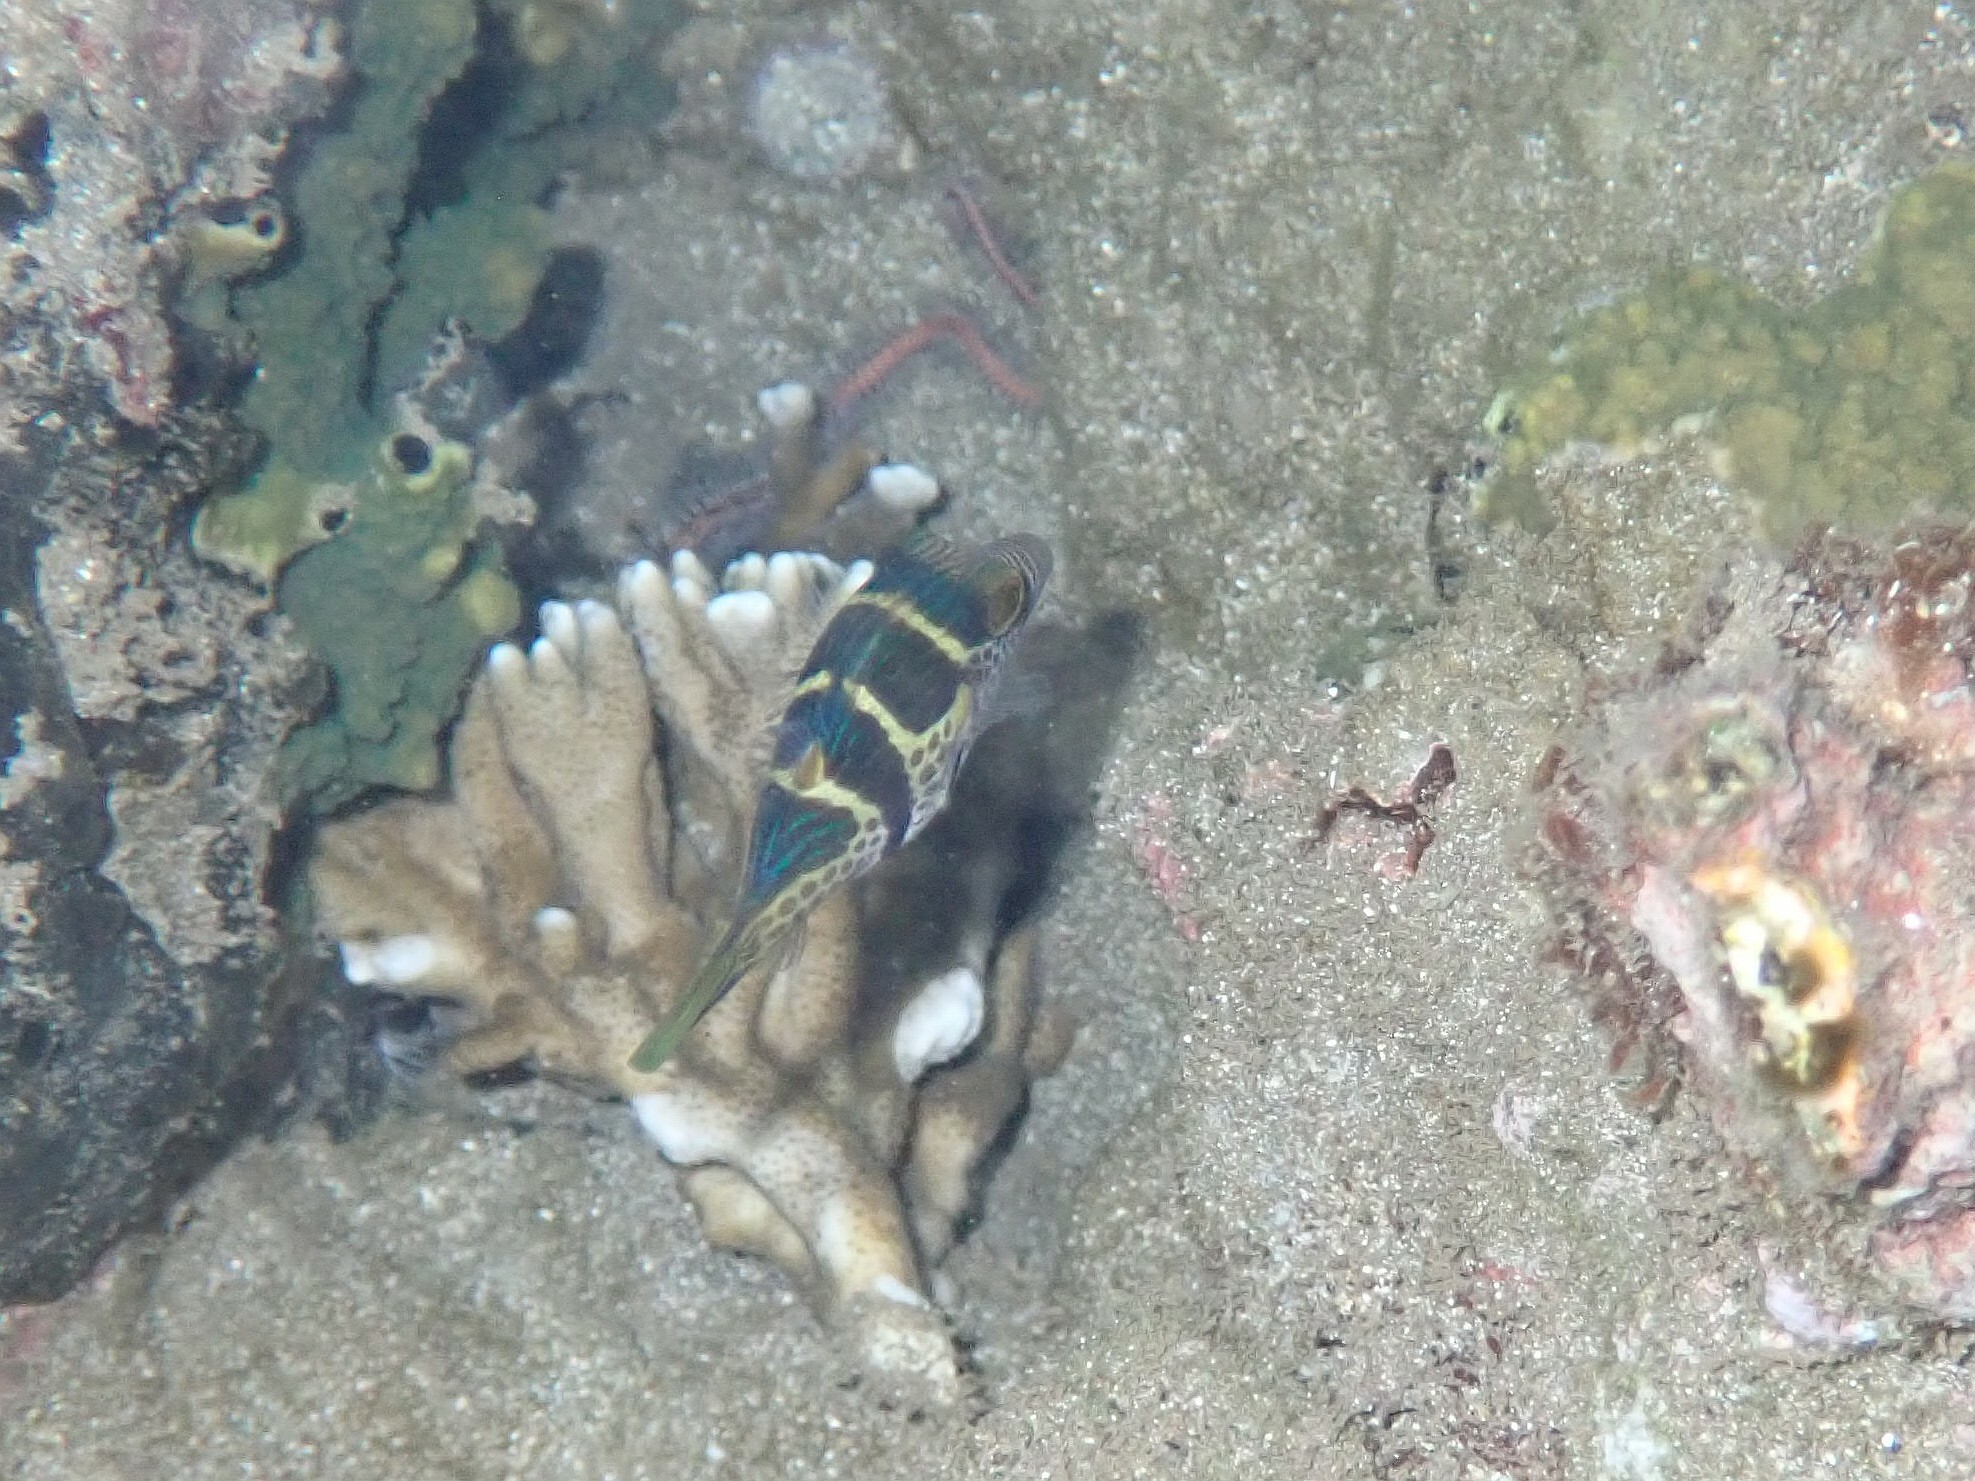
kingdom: Animalia
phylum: Chordata
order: Tetraodontiformes
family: Tetraodontidae
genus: Canthigaster
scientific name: Canthigaster valentini
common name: Banded toby
